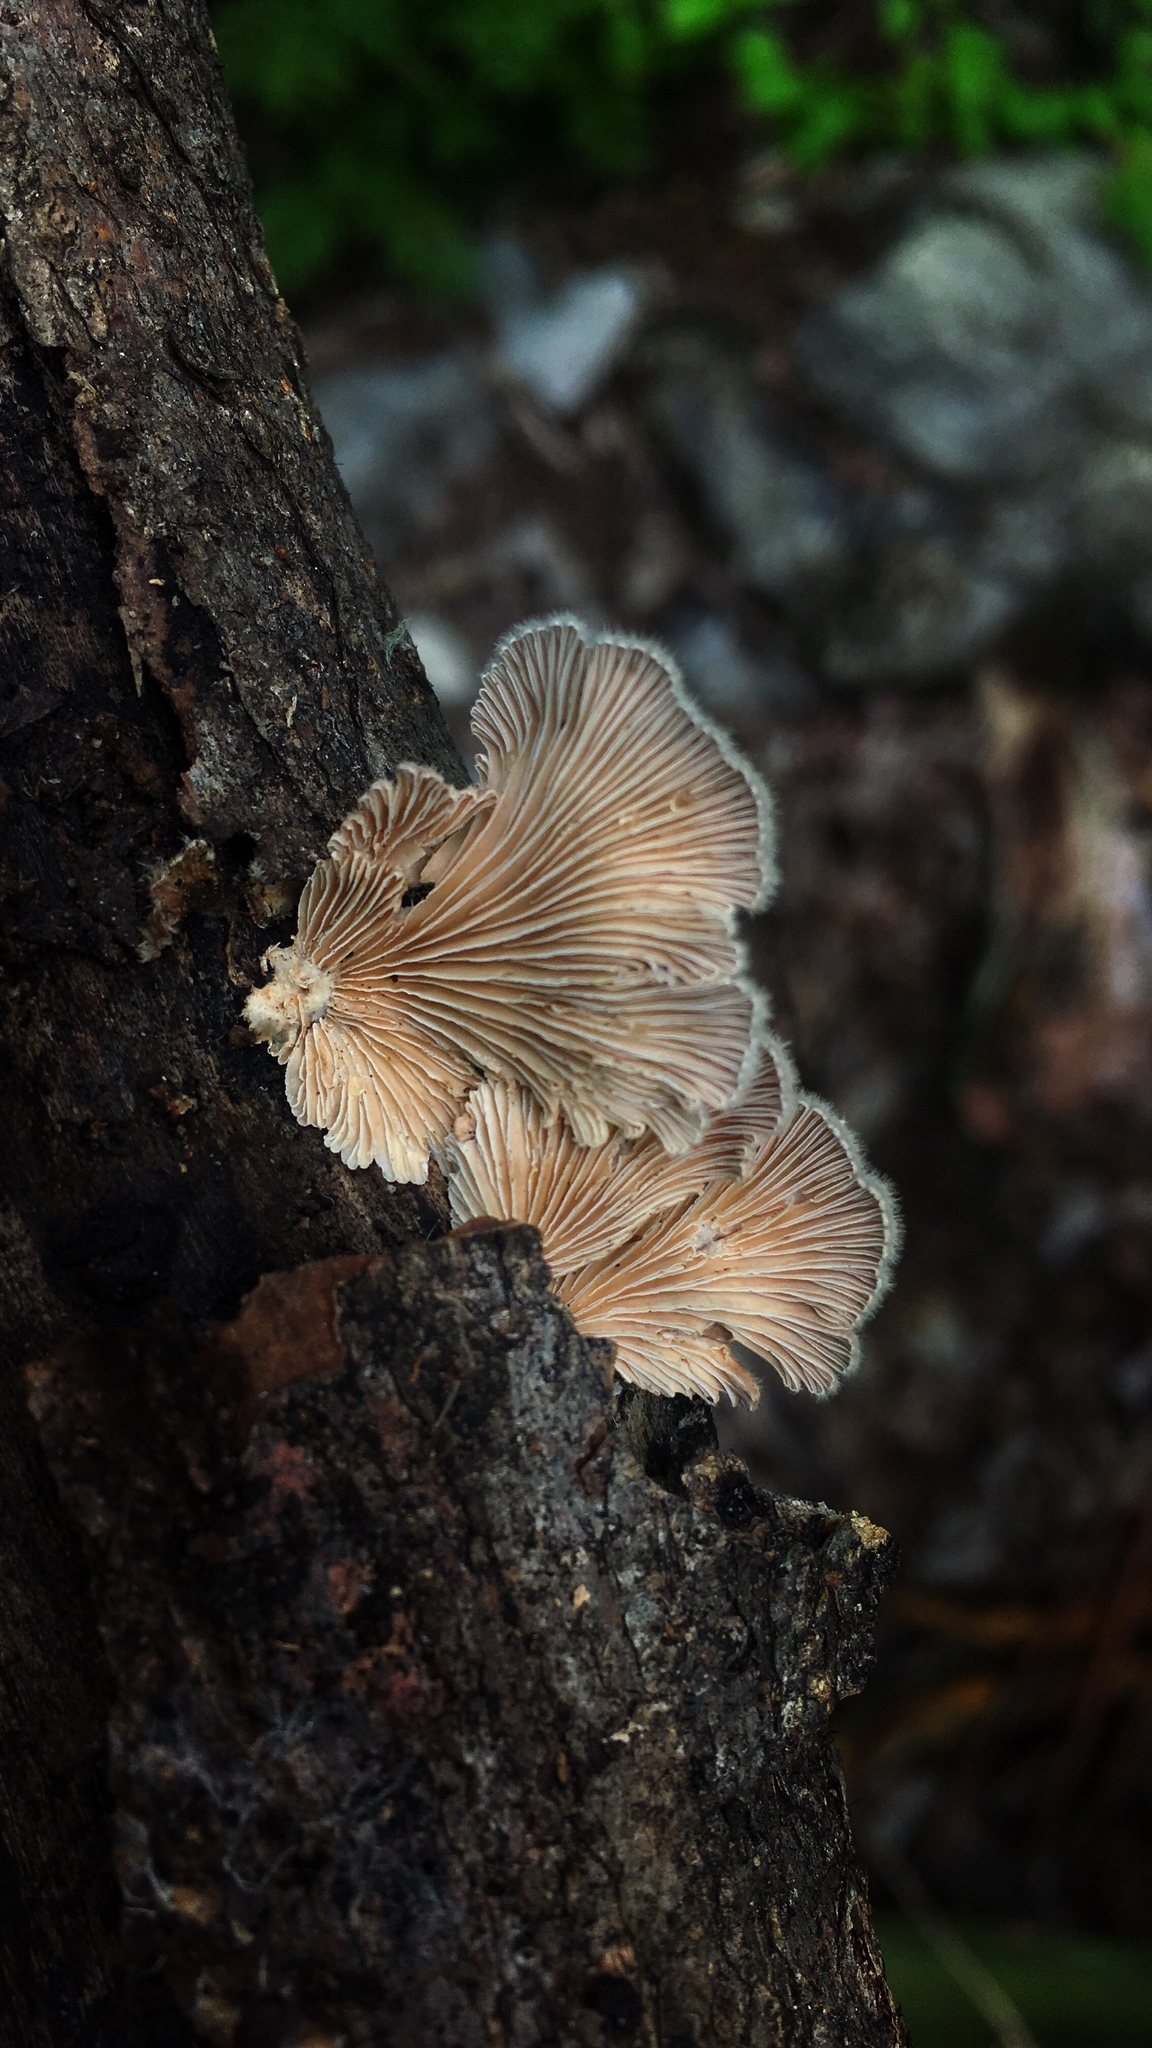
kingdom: Fungi
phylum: Basidiomycota
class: Agaricomycetes
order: Agaricales
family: Schizophyllaceae
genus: Schizophyllum
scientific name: Schizophyllum commune
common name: Common porecrust
